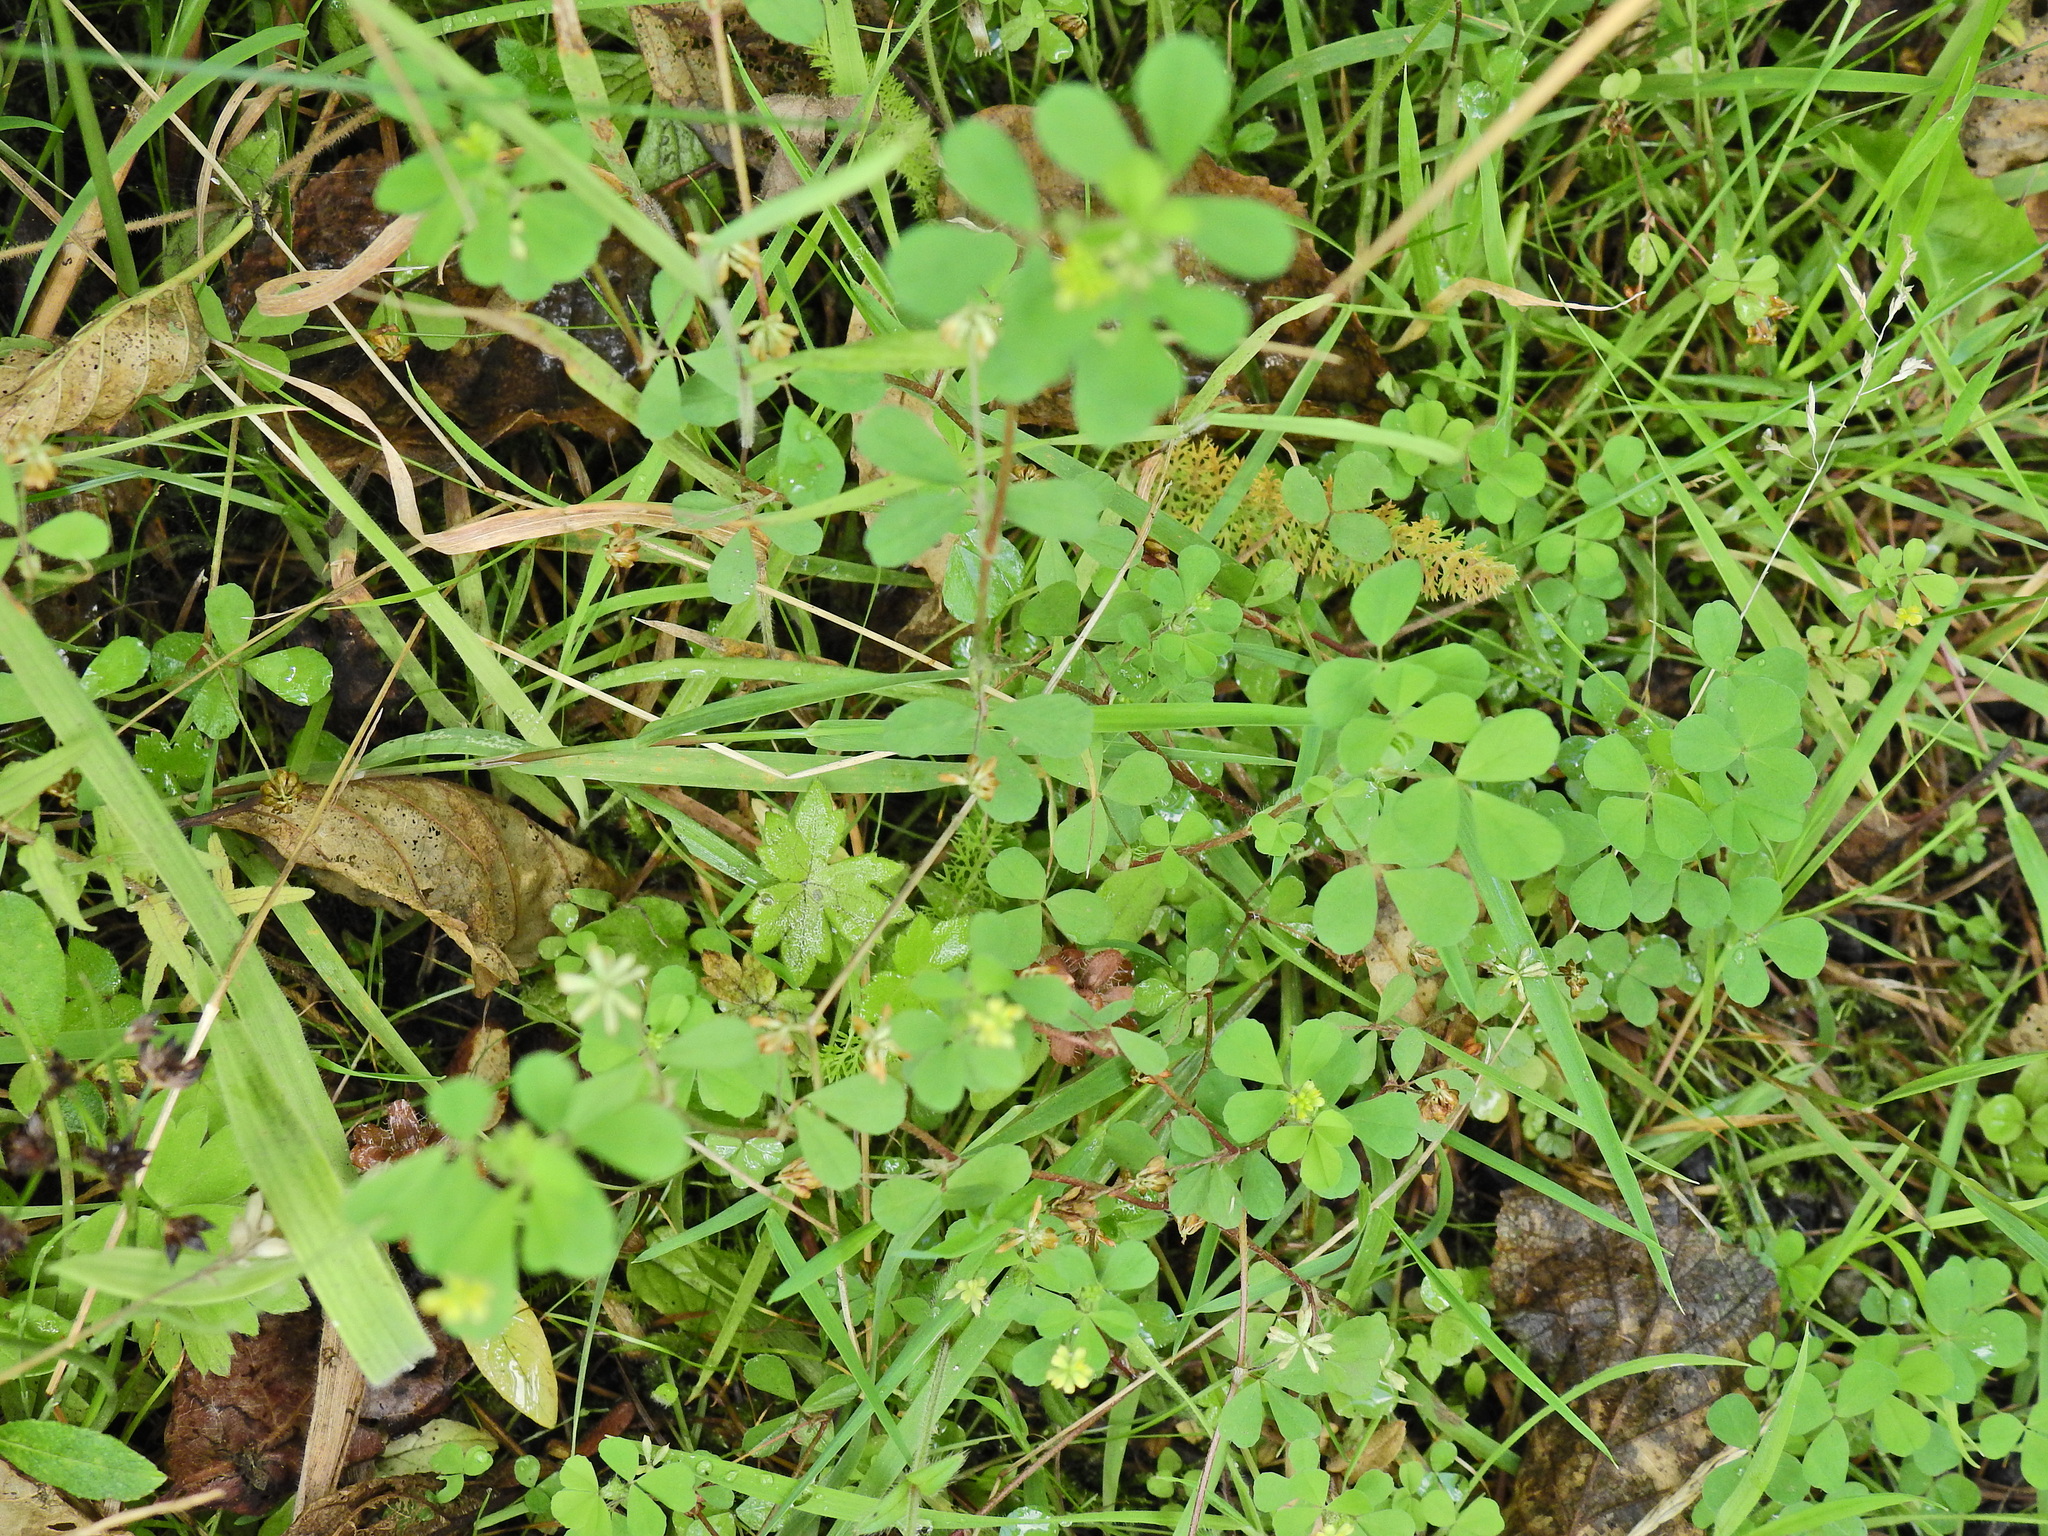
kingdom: Plantae
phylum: Tracheophyta
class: Magnoliopsida
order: Fabales
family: Fabaceae
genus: Trifolium
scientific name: Trifolium dubium
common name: Suckling clover
